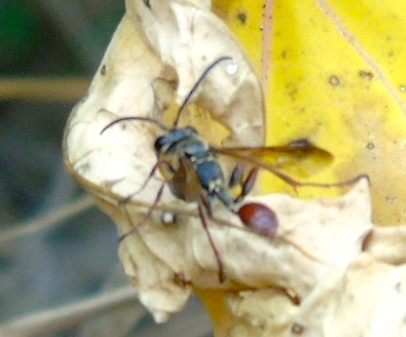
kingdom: Animalia
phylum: Arthropoda
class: Insecta
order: Hymenoptera
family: Sphecidae
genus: Isodontia
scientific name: Isodontia
